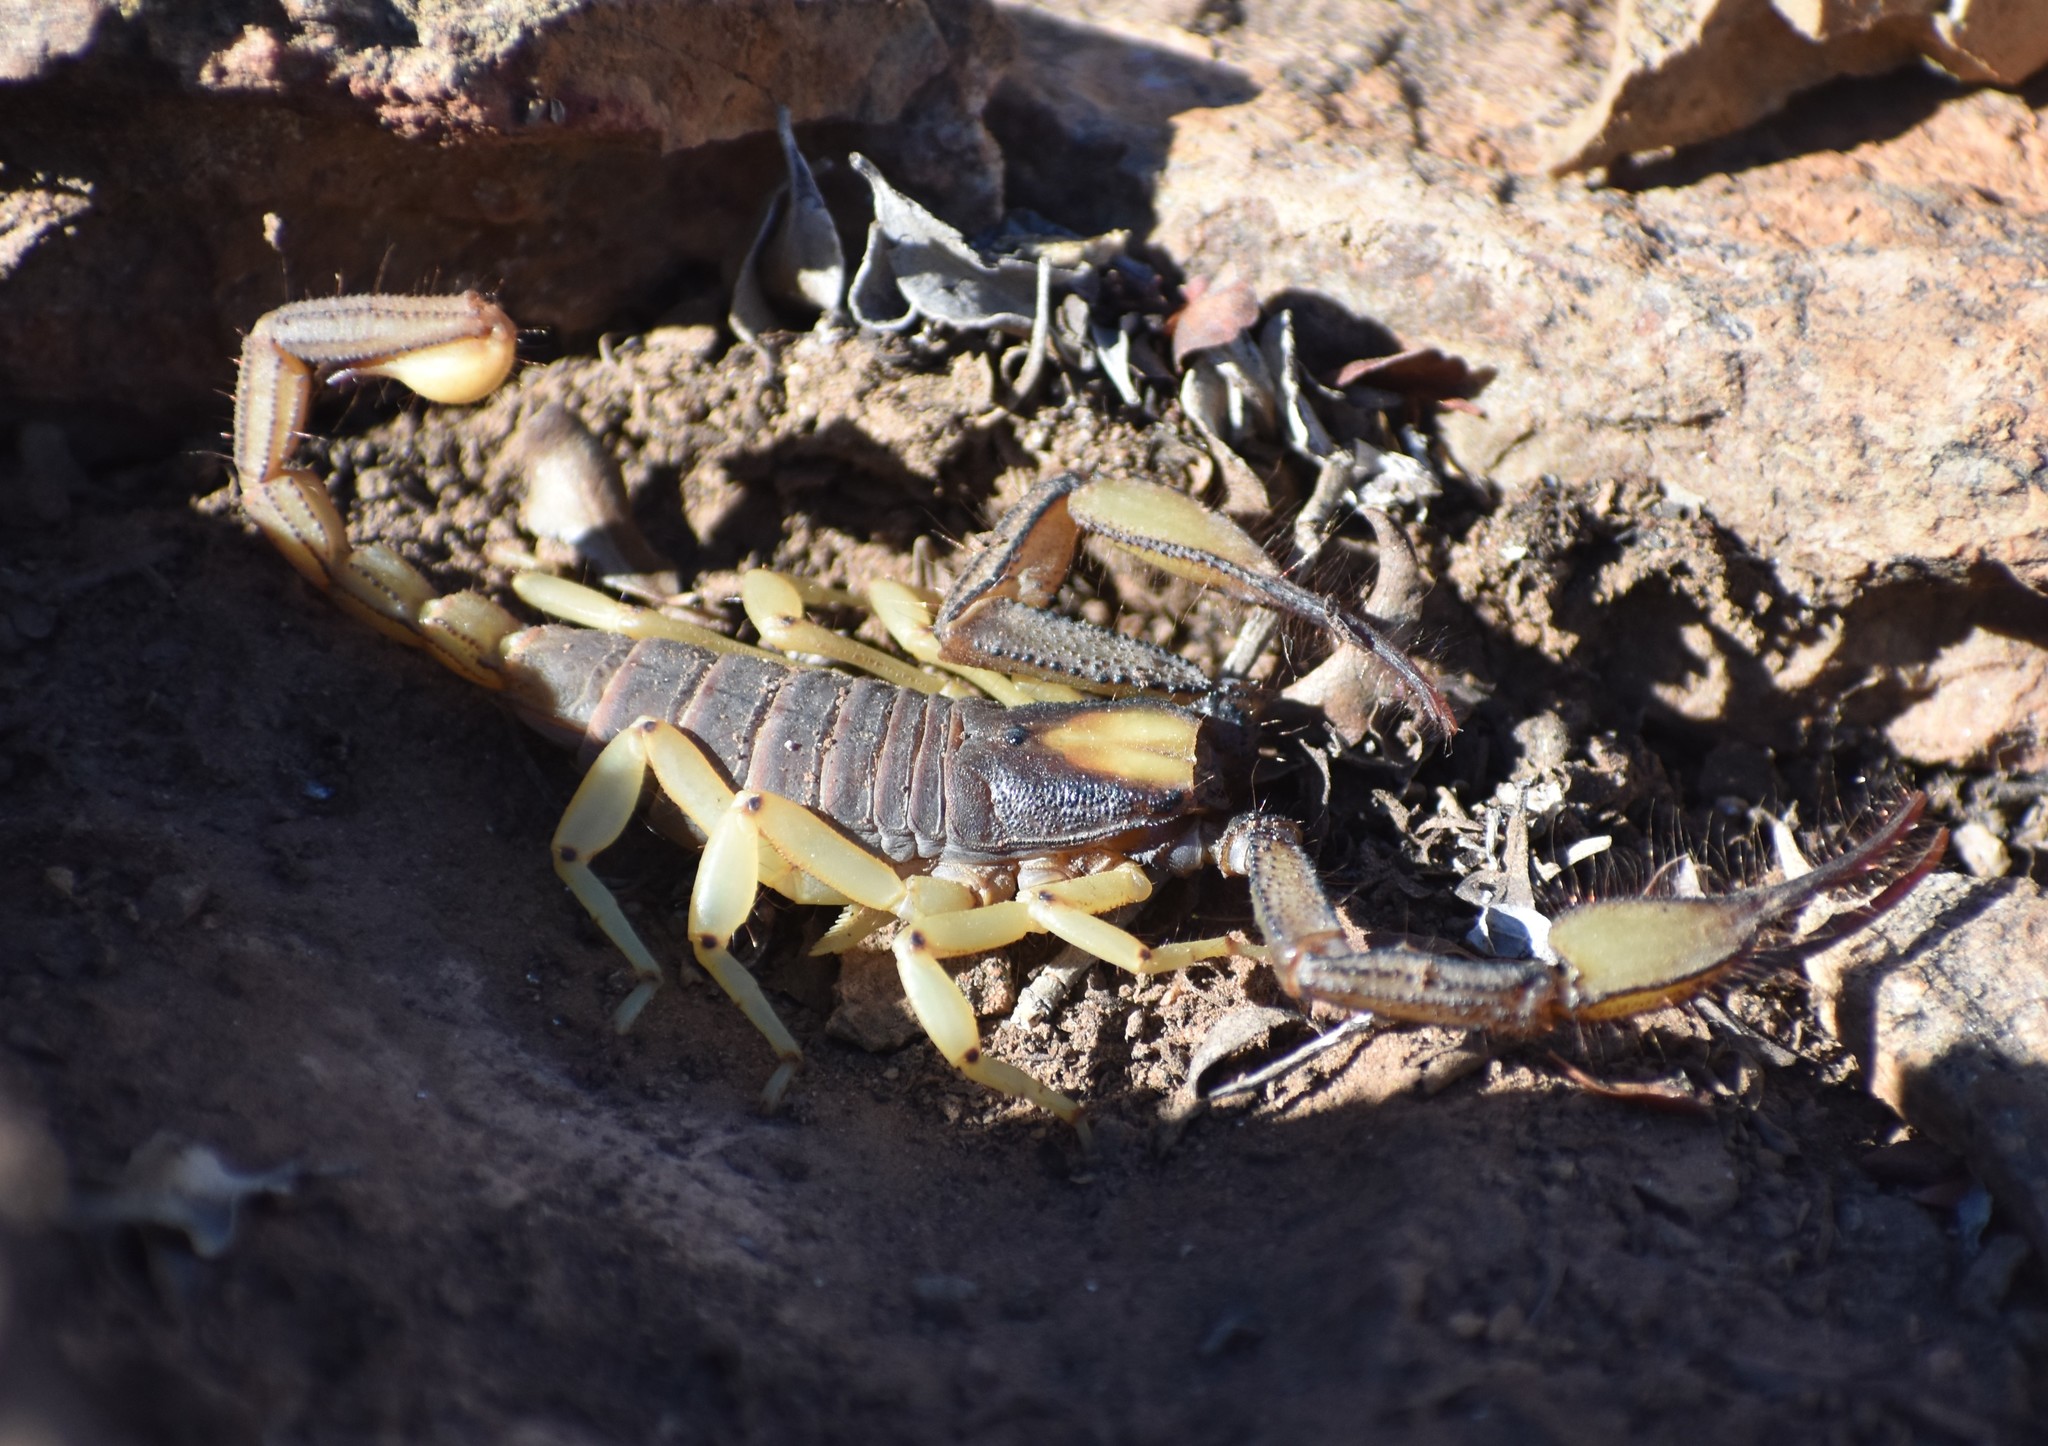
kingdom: Animalia
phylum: Arthropoda
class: Arachnida
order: Scorpiones
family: Scorpionidae
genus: Opistophthalmus
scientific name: Opistophthalmus karrooensis
